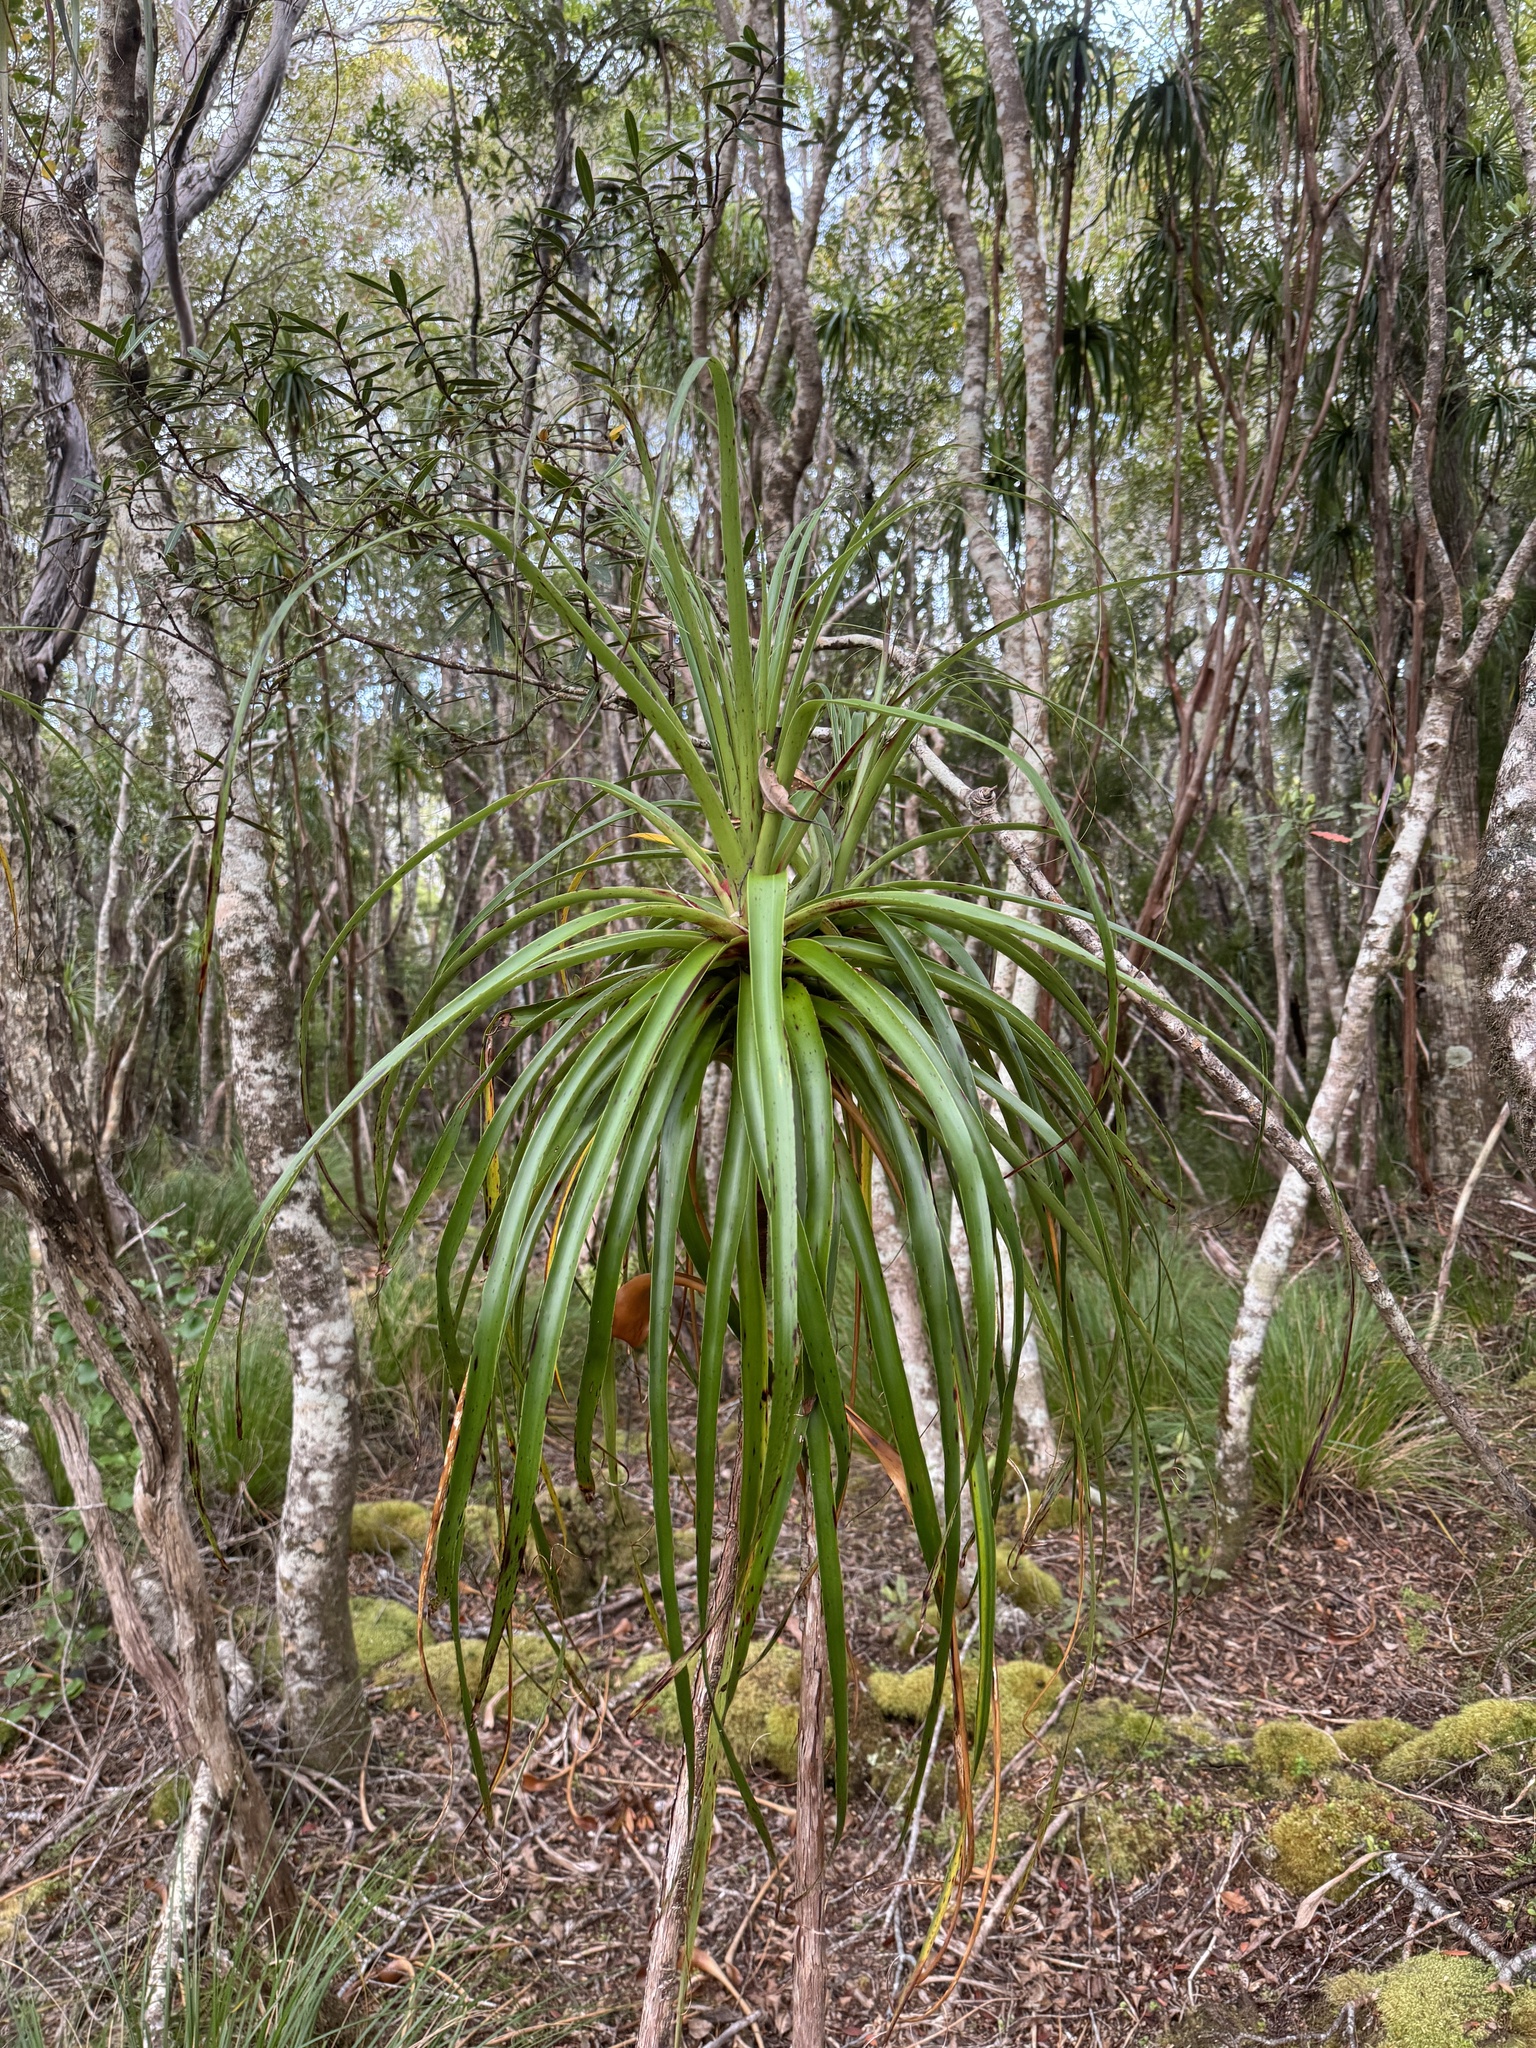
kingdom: Plantae
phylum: Tracheophyta
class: Magnoliopsida
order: Ericales
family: Ericaceae
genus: Dracophyllum
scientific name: Dracophyllum elegantissimum
